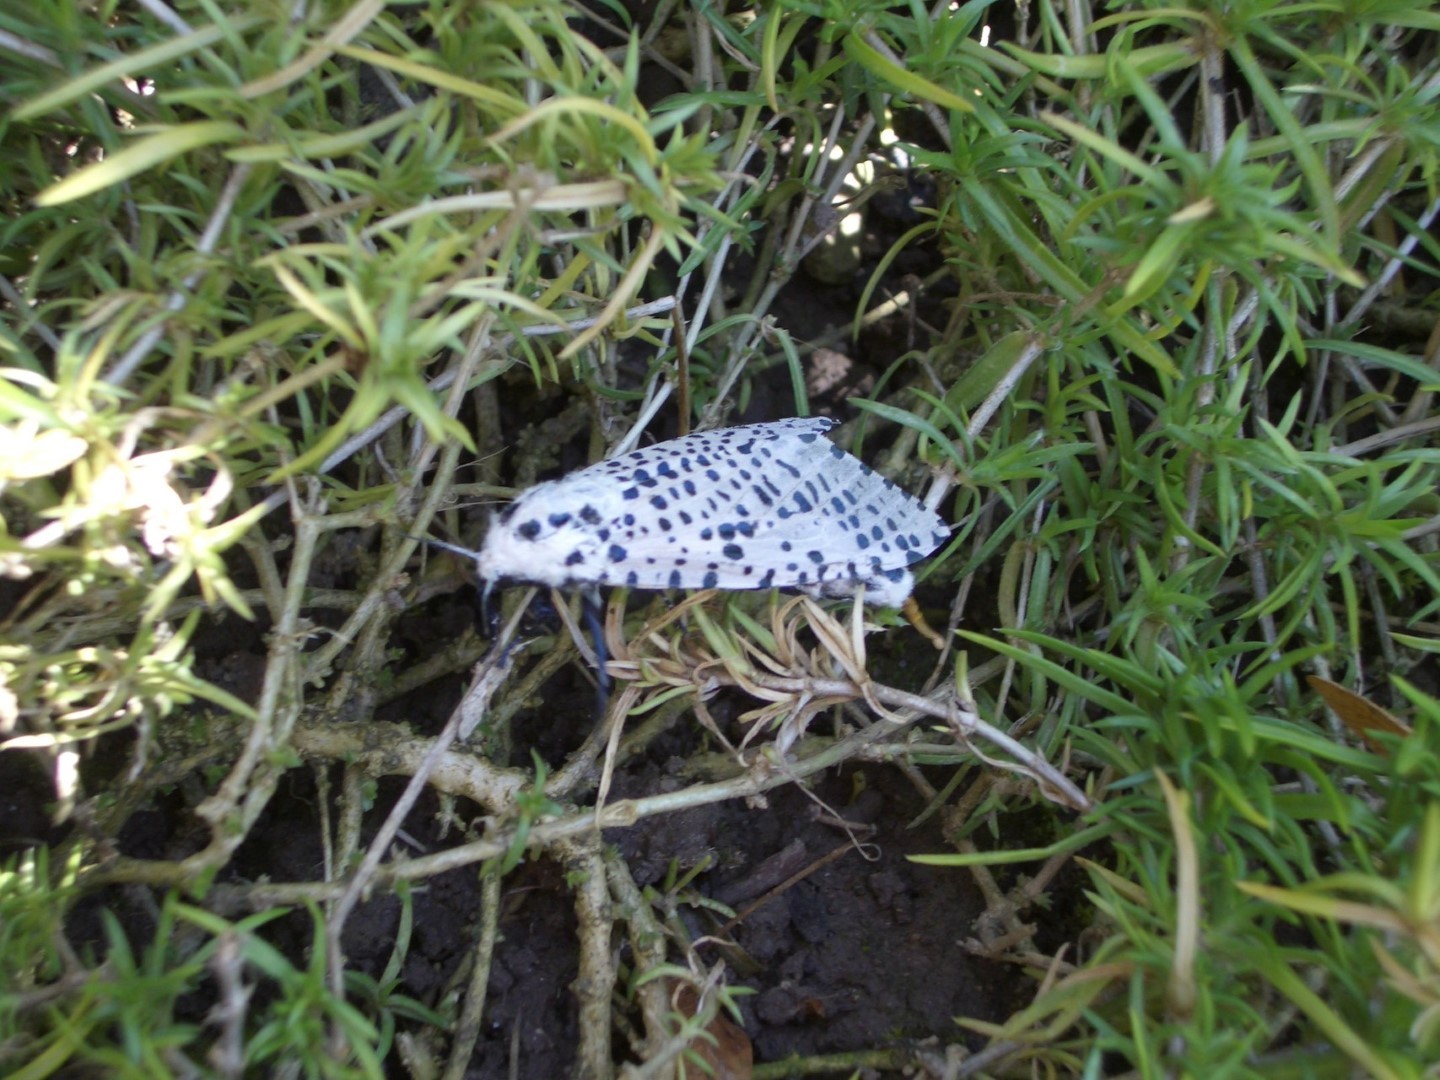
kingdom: Animalia
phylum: Arthropoda
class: Insecta
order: Lepidoptera
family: Cossidae
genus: Zeuzera
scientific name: Zeuzera pyrina
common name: Leopard moth
